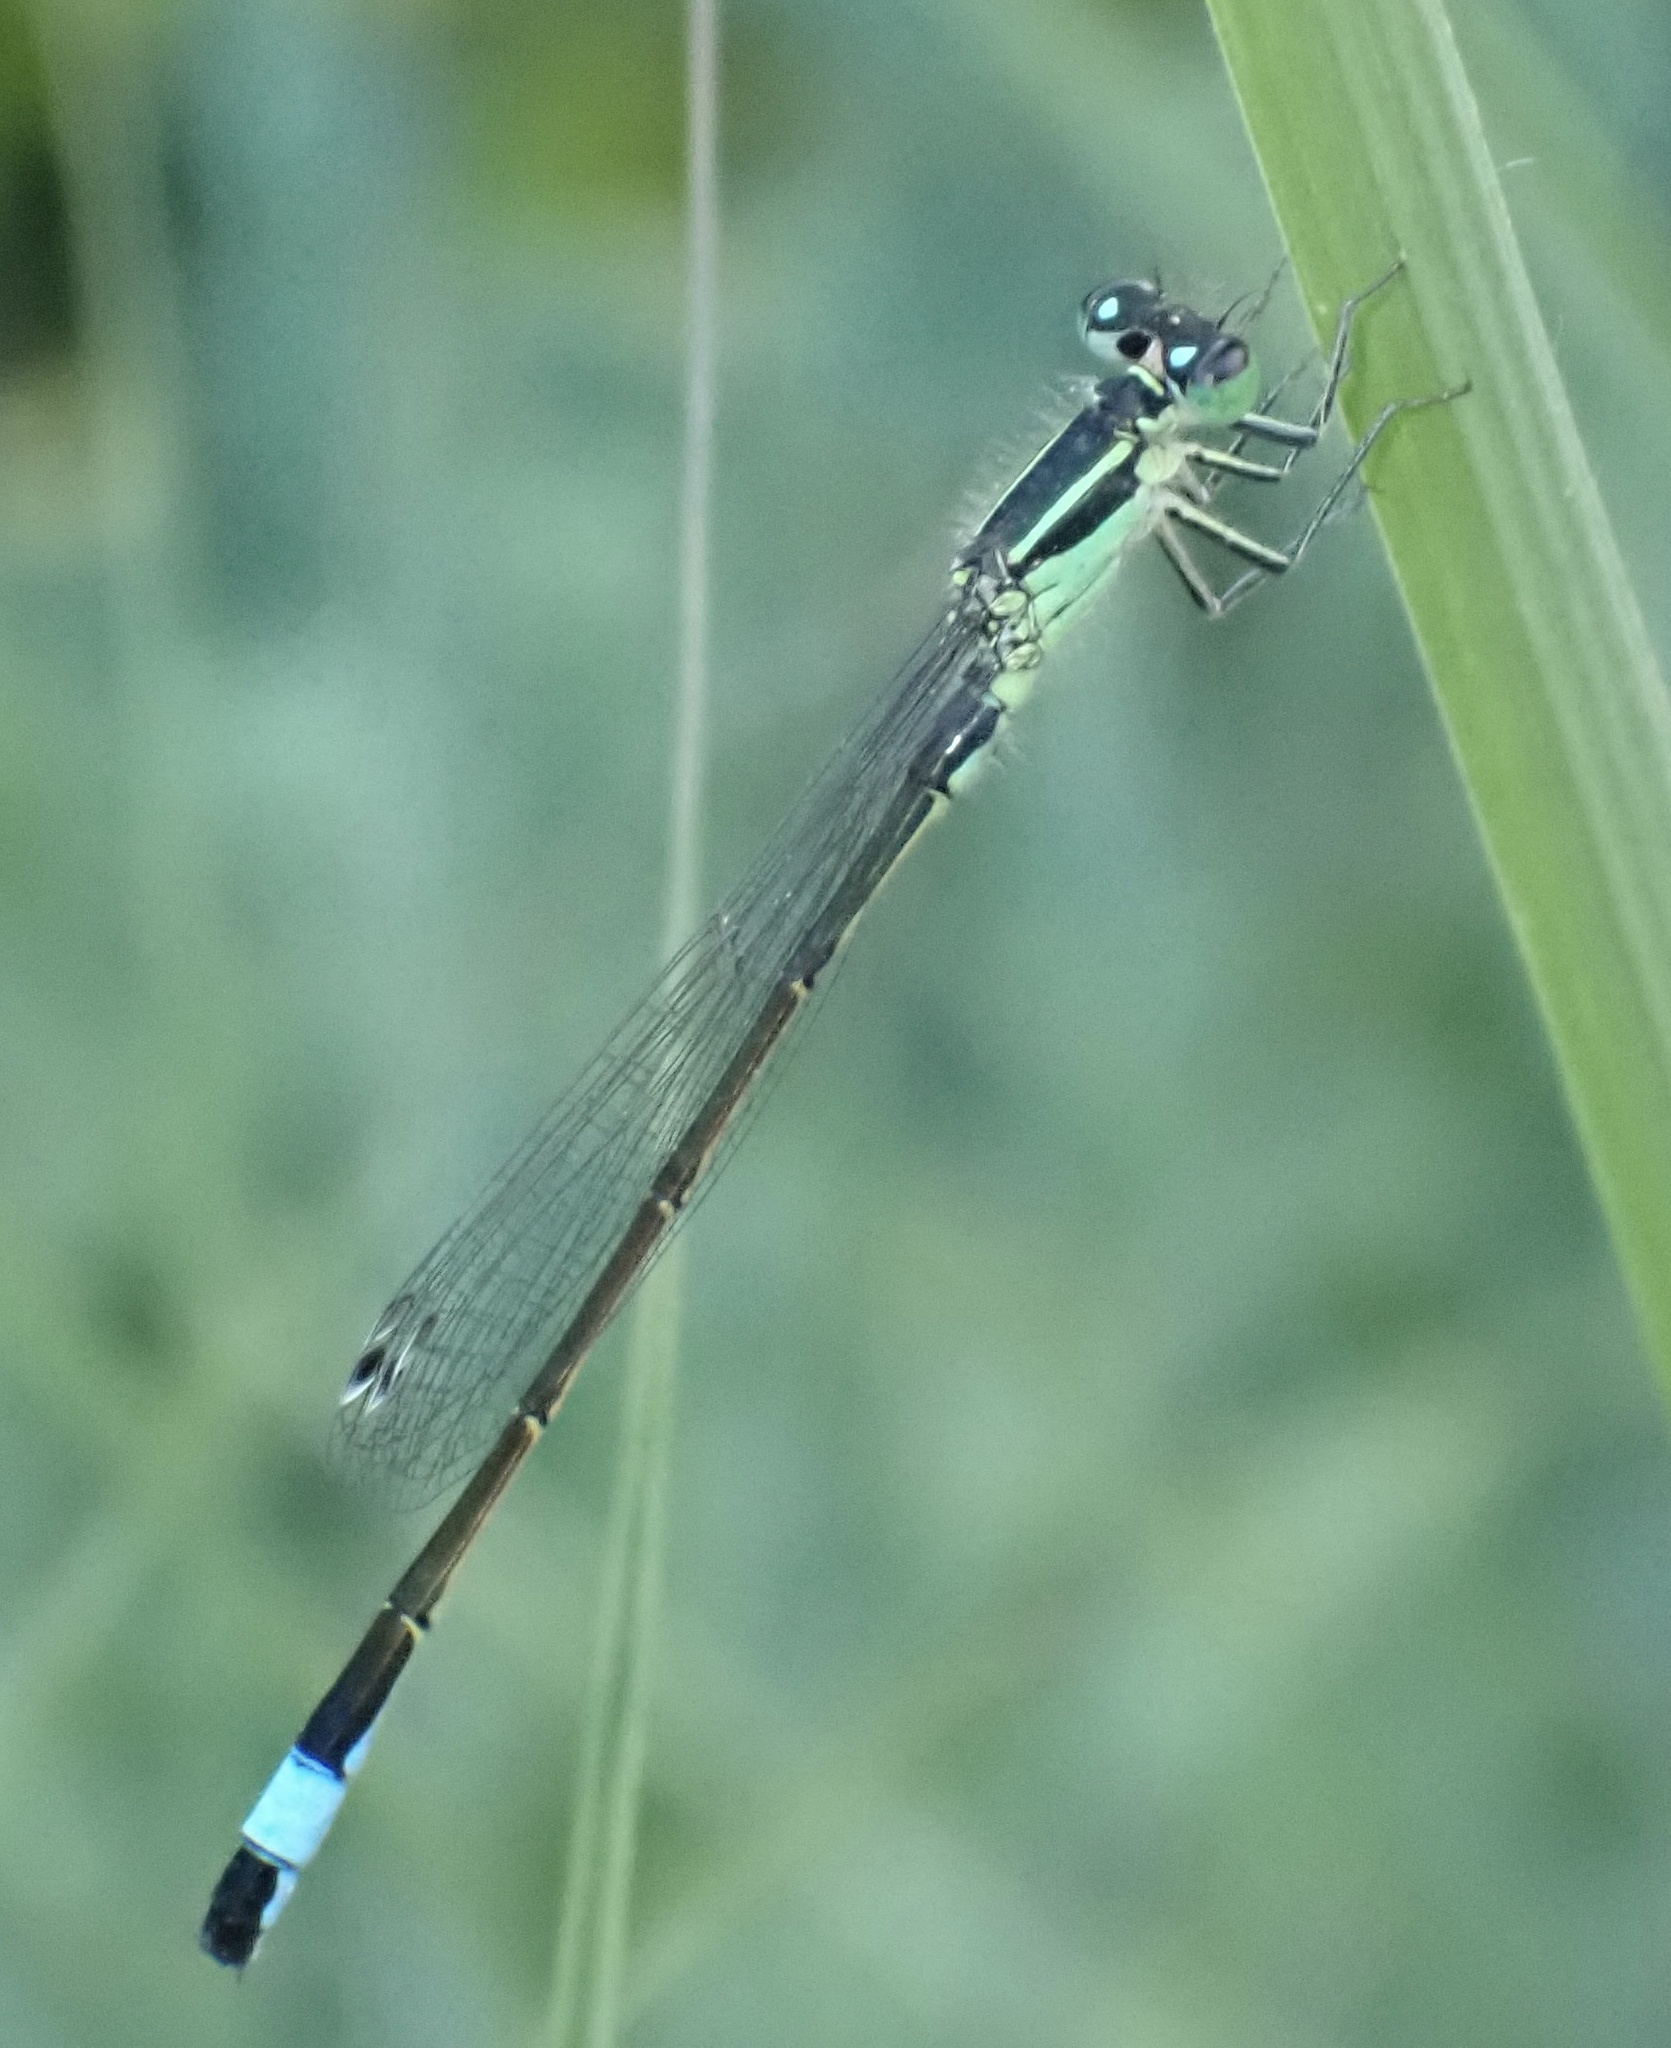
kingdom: Animalia
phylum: Arthropoda
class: Insecta
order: Odonata
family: Coenagrionidae
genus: Ischnura
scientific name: Ischnura elegans
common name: Blue-tailed damselfly
